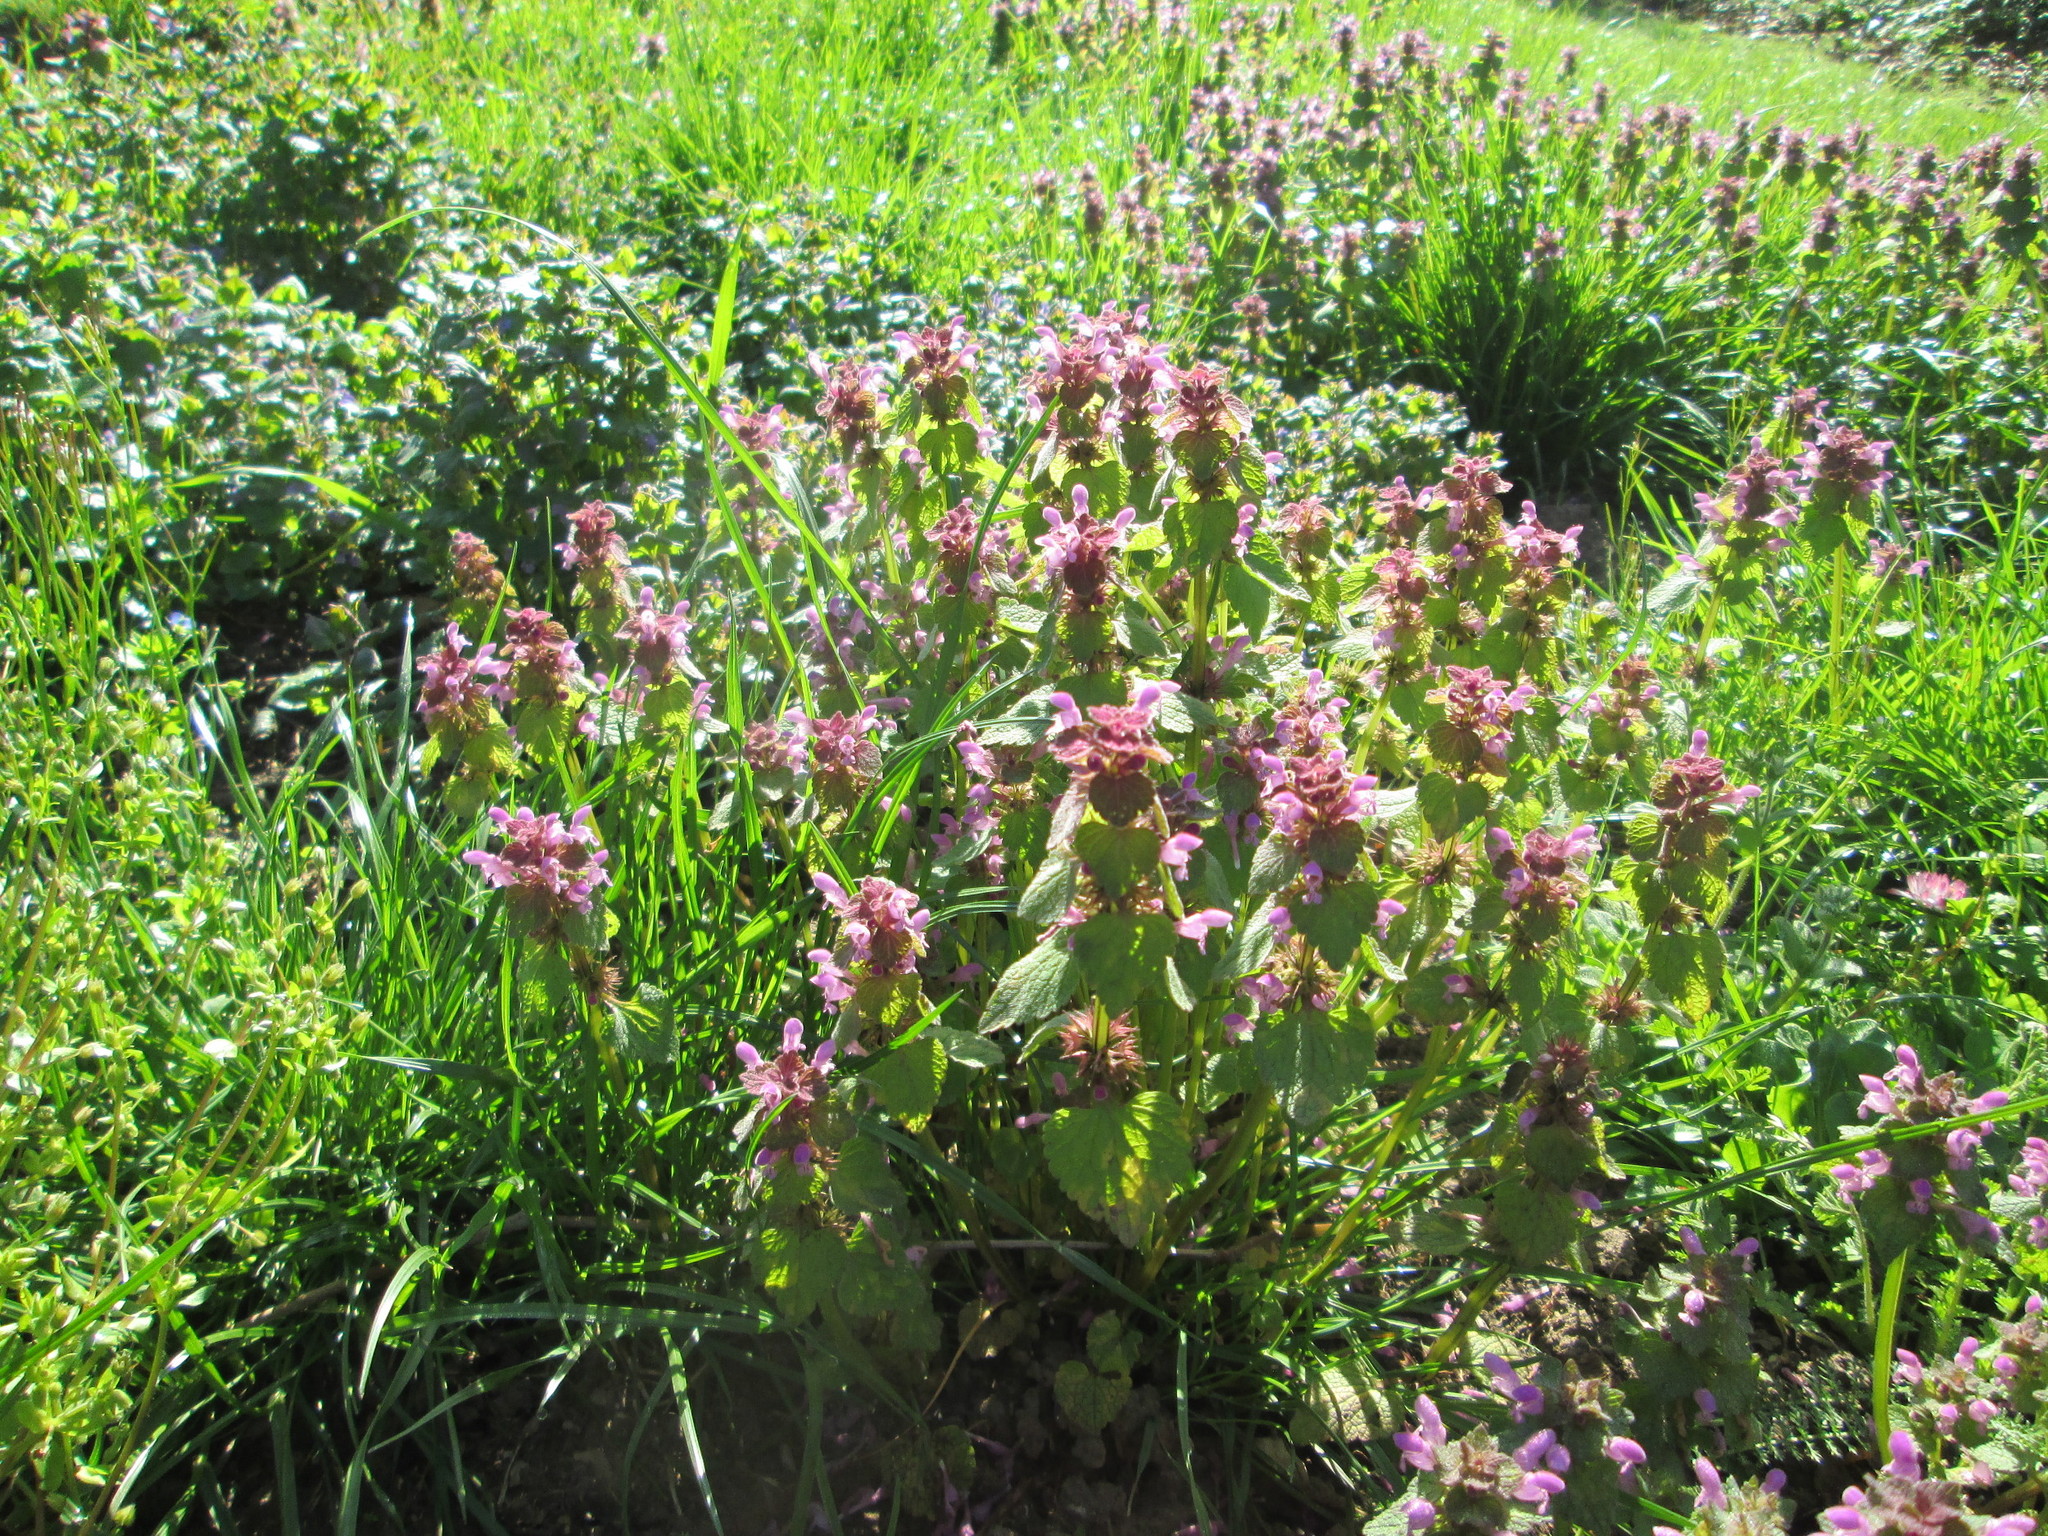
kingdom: Plantae
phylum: Tracheophyta
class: Magnoliopsida
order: Lamiales
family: Lamiaceae
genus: Lamium
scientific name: Lamium purpureum
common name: Red dead-nettle
